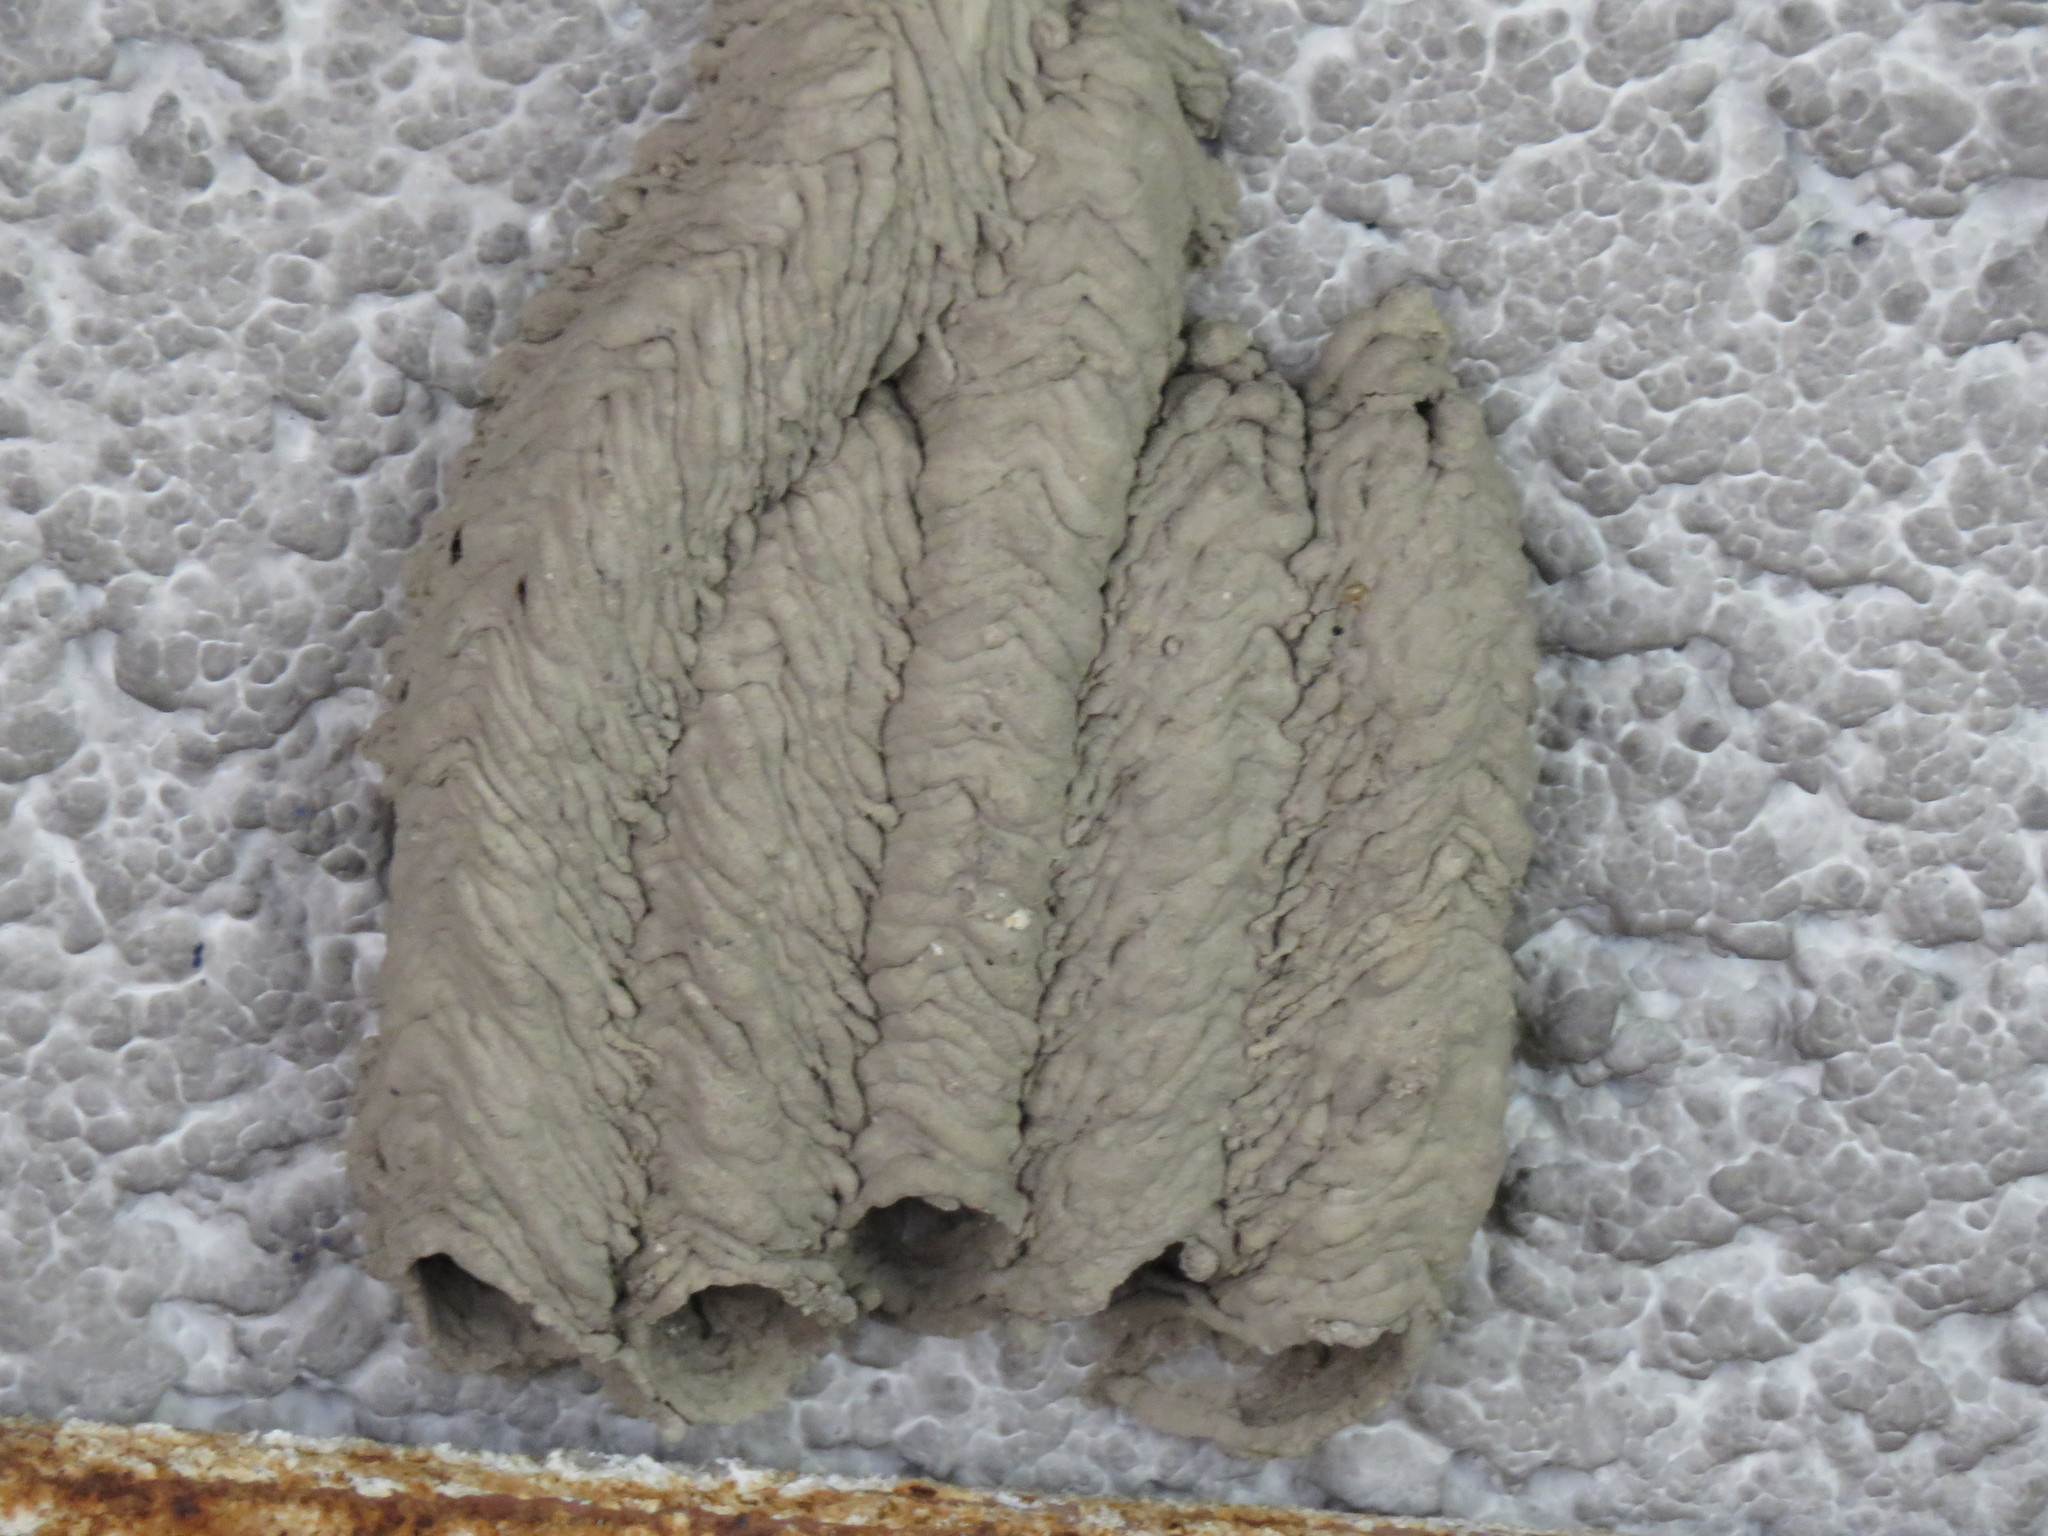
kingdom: Animalia
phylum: Arthropoda
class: Insecta
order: Hymenoptera
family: Crabronidae
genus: Trypoxylon
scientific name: Trypoxylon politum
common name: Organ-pipe mud-dauber wasp
